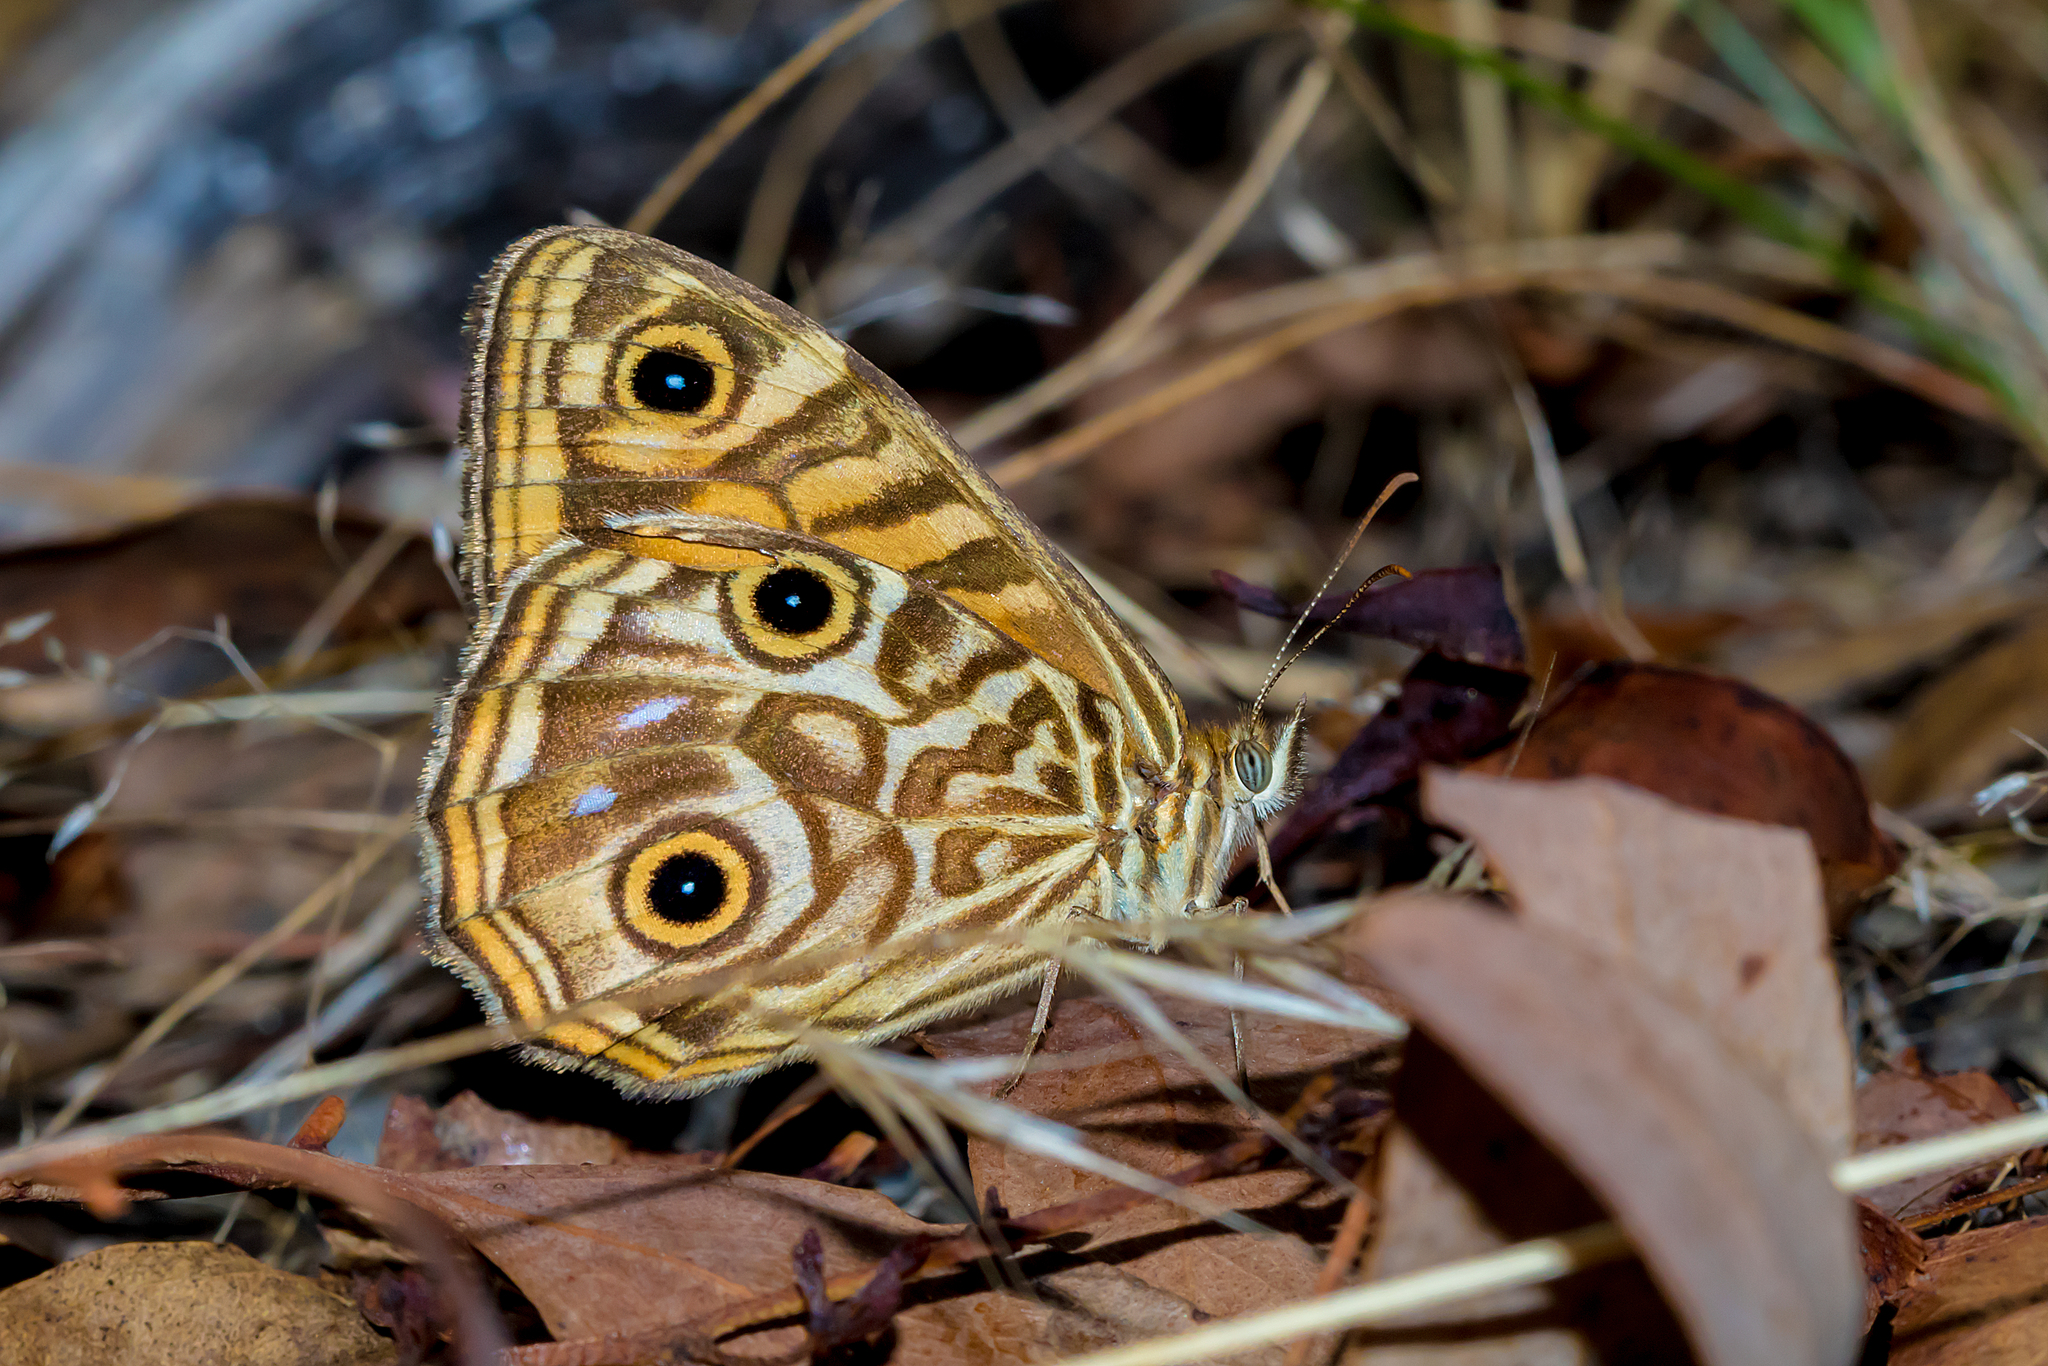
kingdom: Animalia
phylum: Arthropoda
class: Insecta
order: Lepidoptera
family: Nymphalidae
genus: Geitoneura
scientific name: Geitoneura acantha
